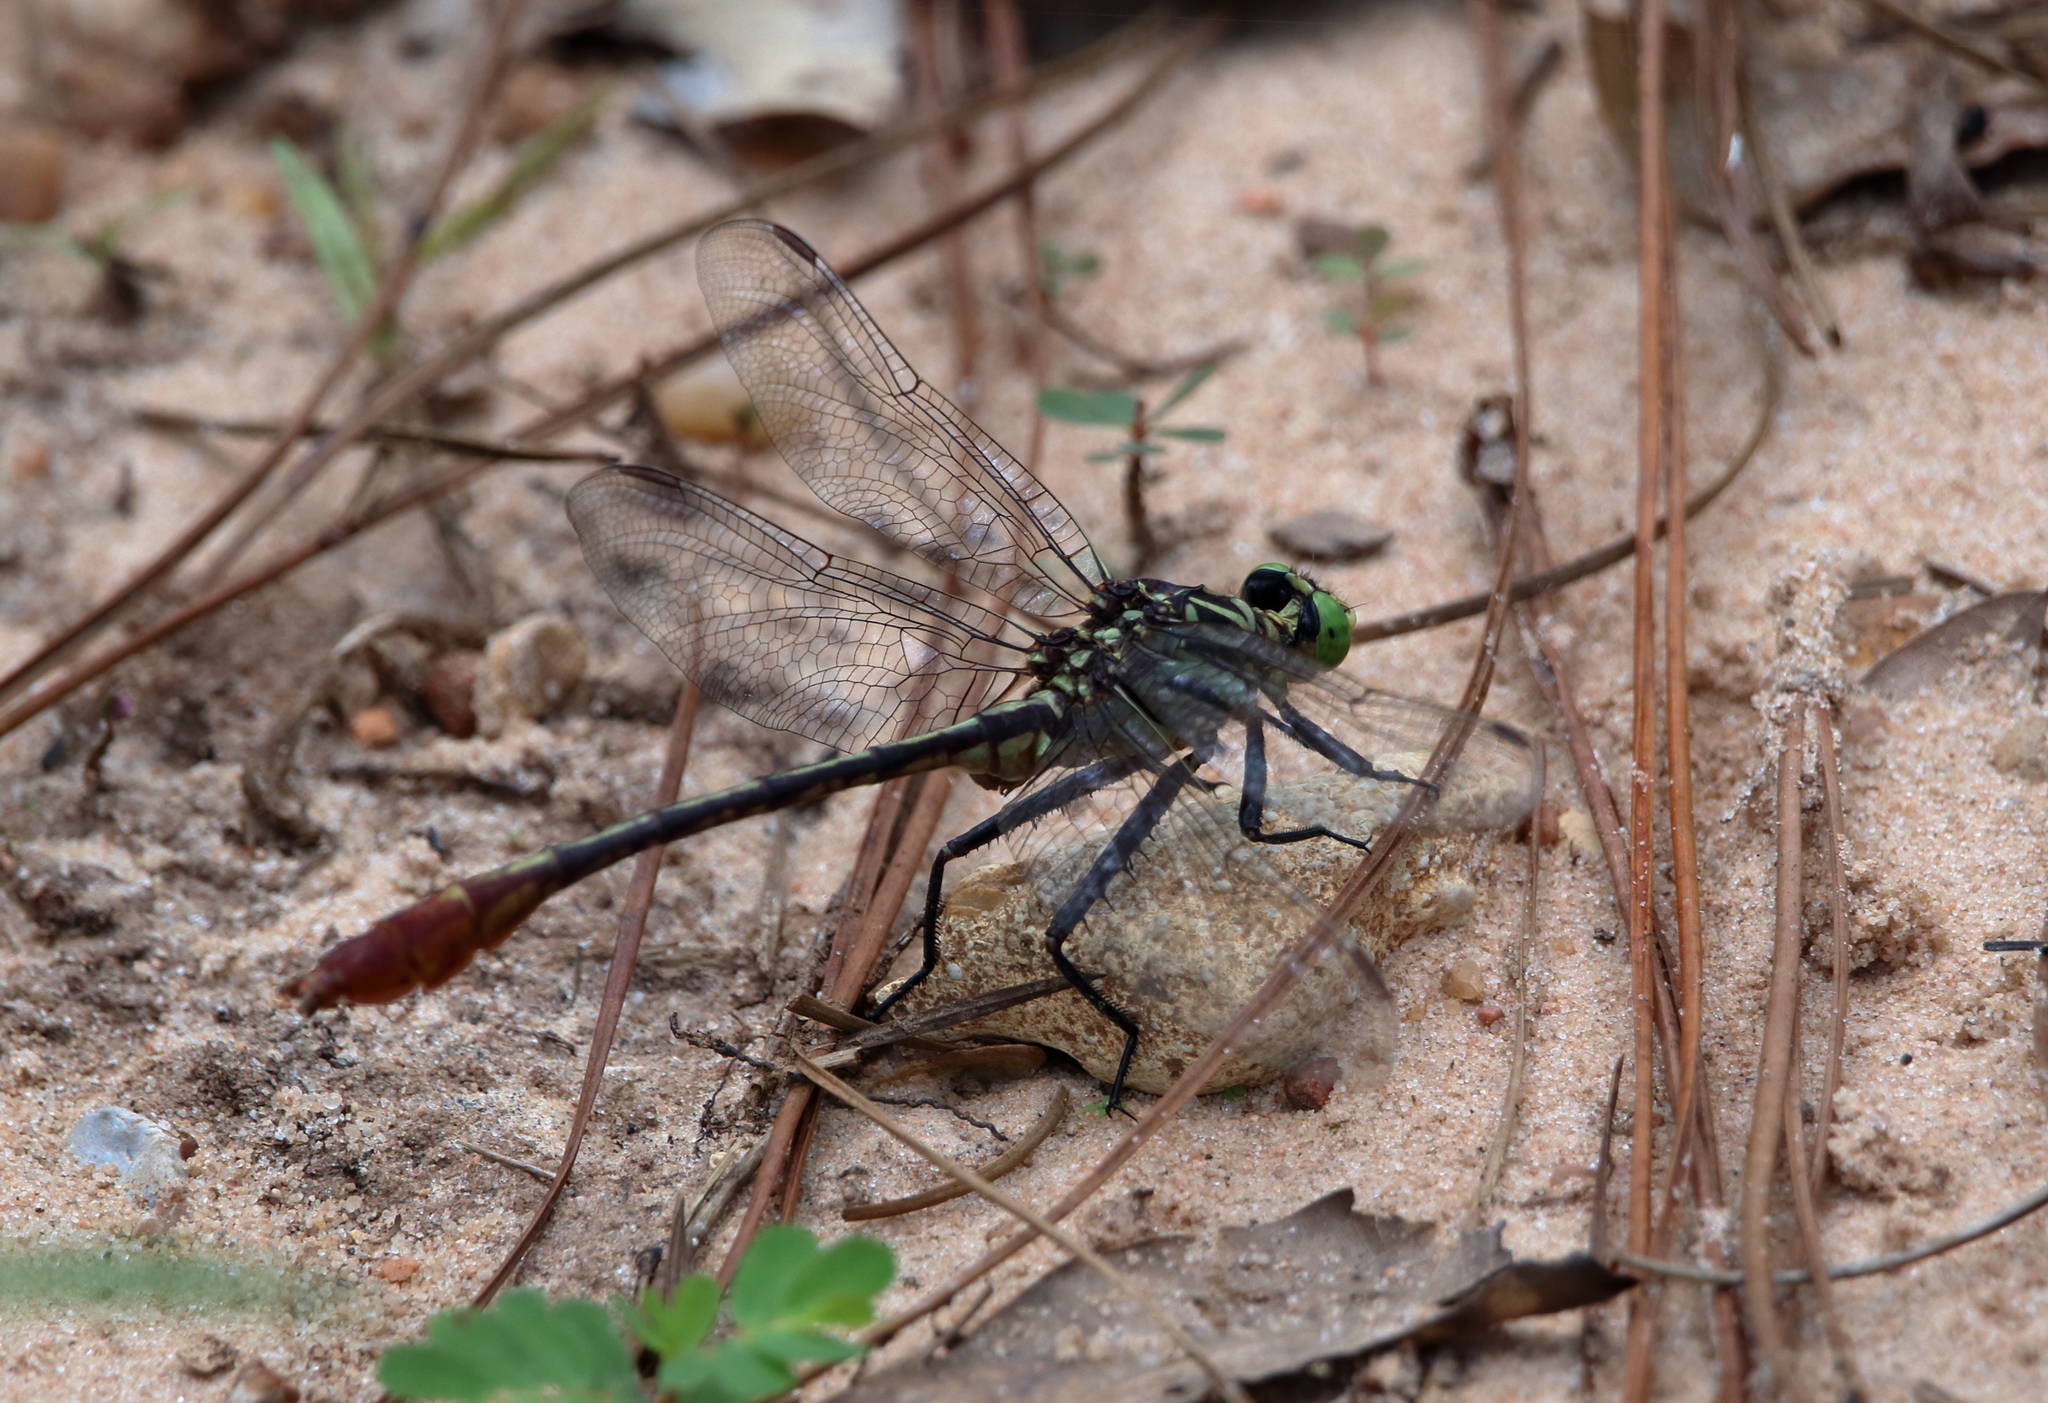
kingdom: Animalia
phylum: Arthropoda
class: Insecta
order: Odonata
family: Gomphidae
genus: Dromogomphus
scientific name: Dromogomphus armatus
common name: Southeastern spinyleg
